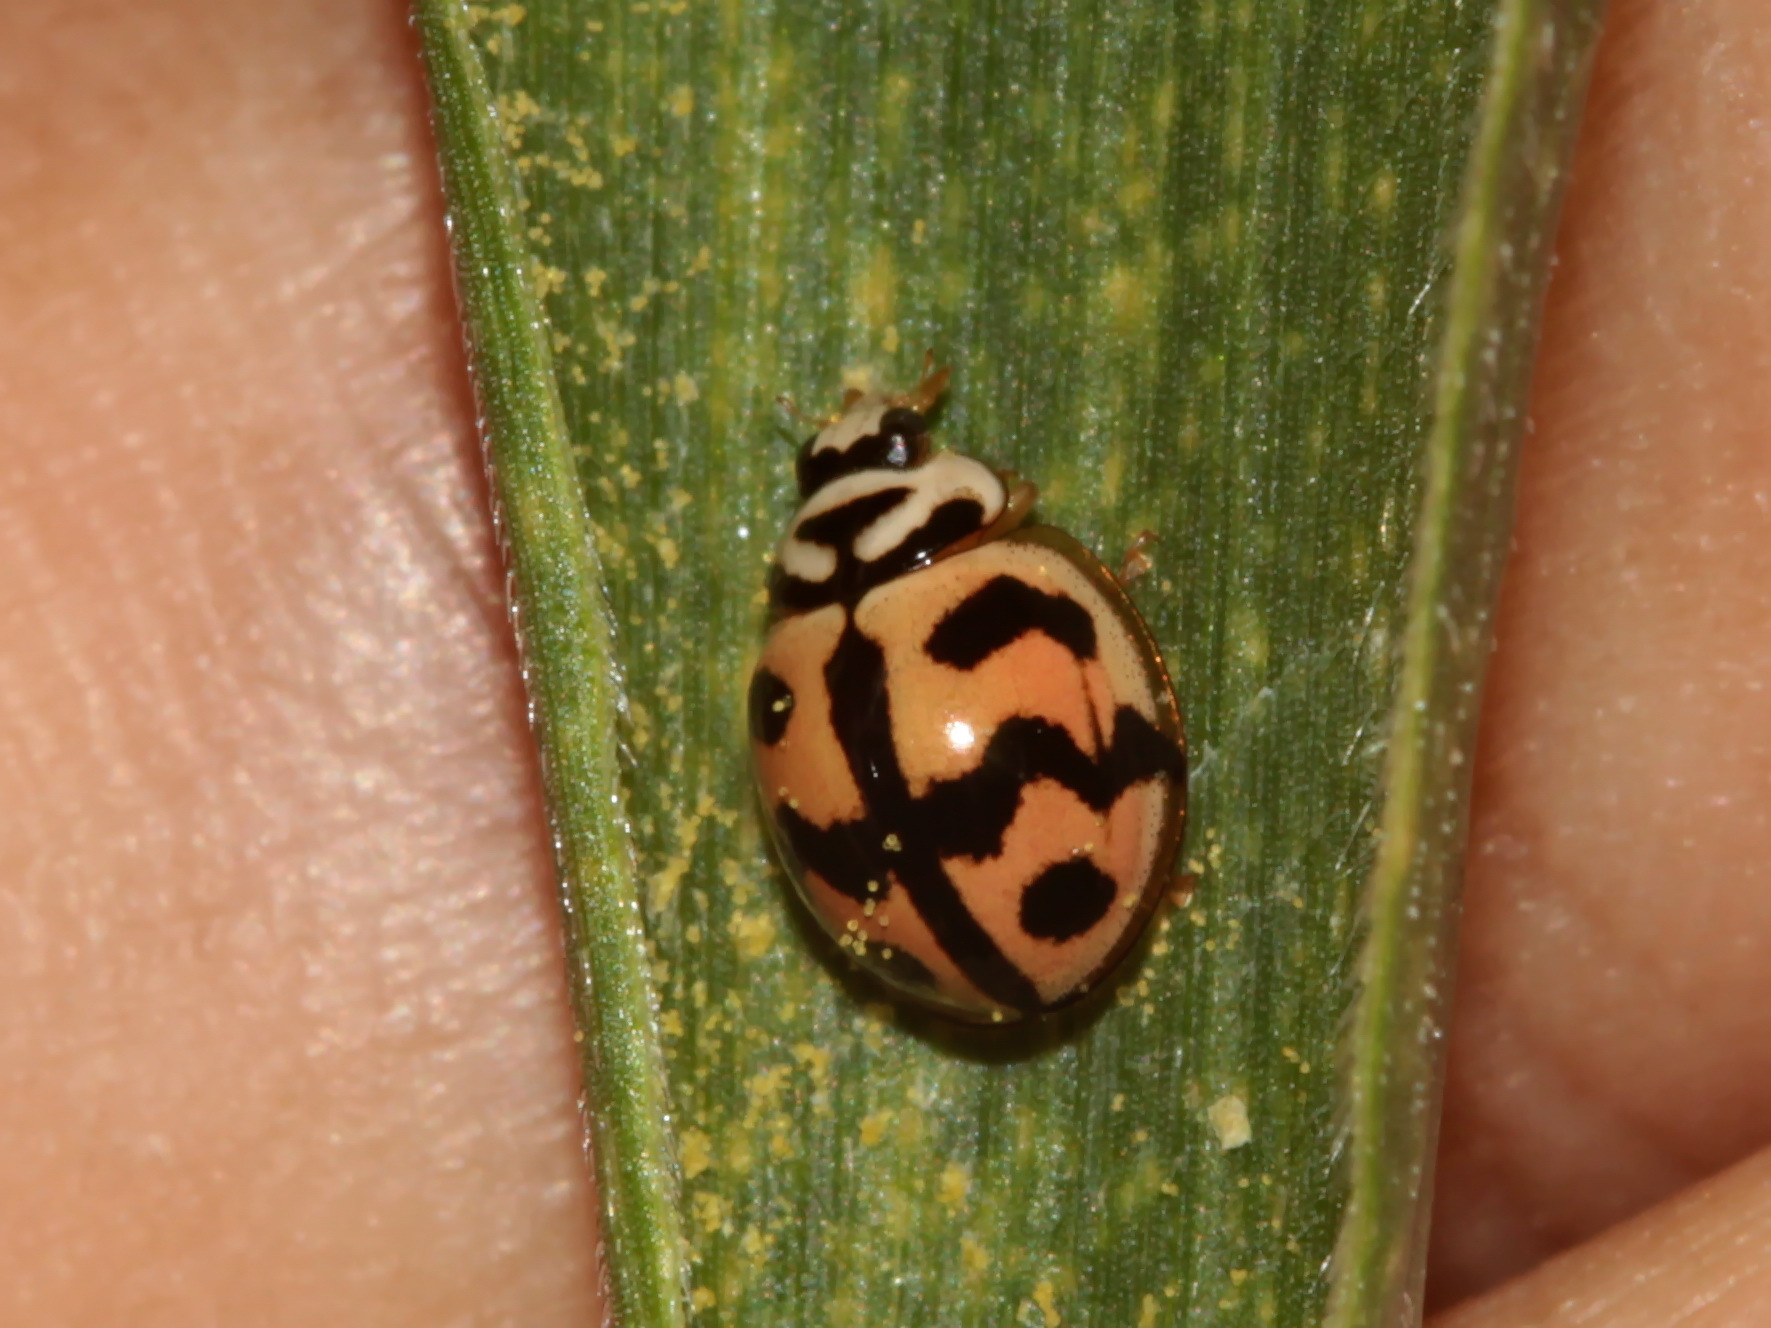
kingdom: Animalia
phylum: Arthropoda
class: Insecta
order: Coleoptera
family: Coccinellidae
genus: Cheilomenes
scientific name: Cheilomenes sexmaculata
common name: Ladybird beetle
